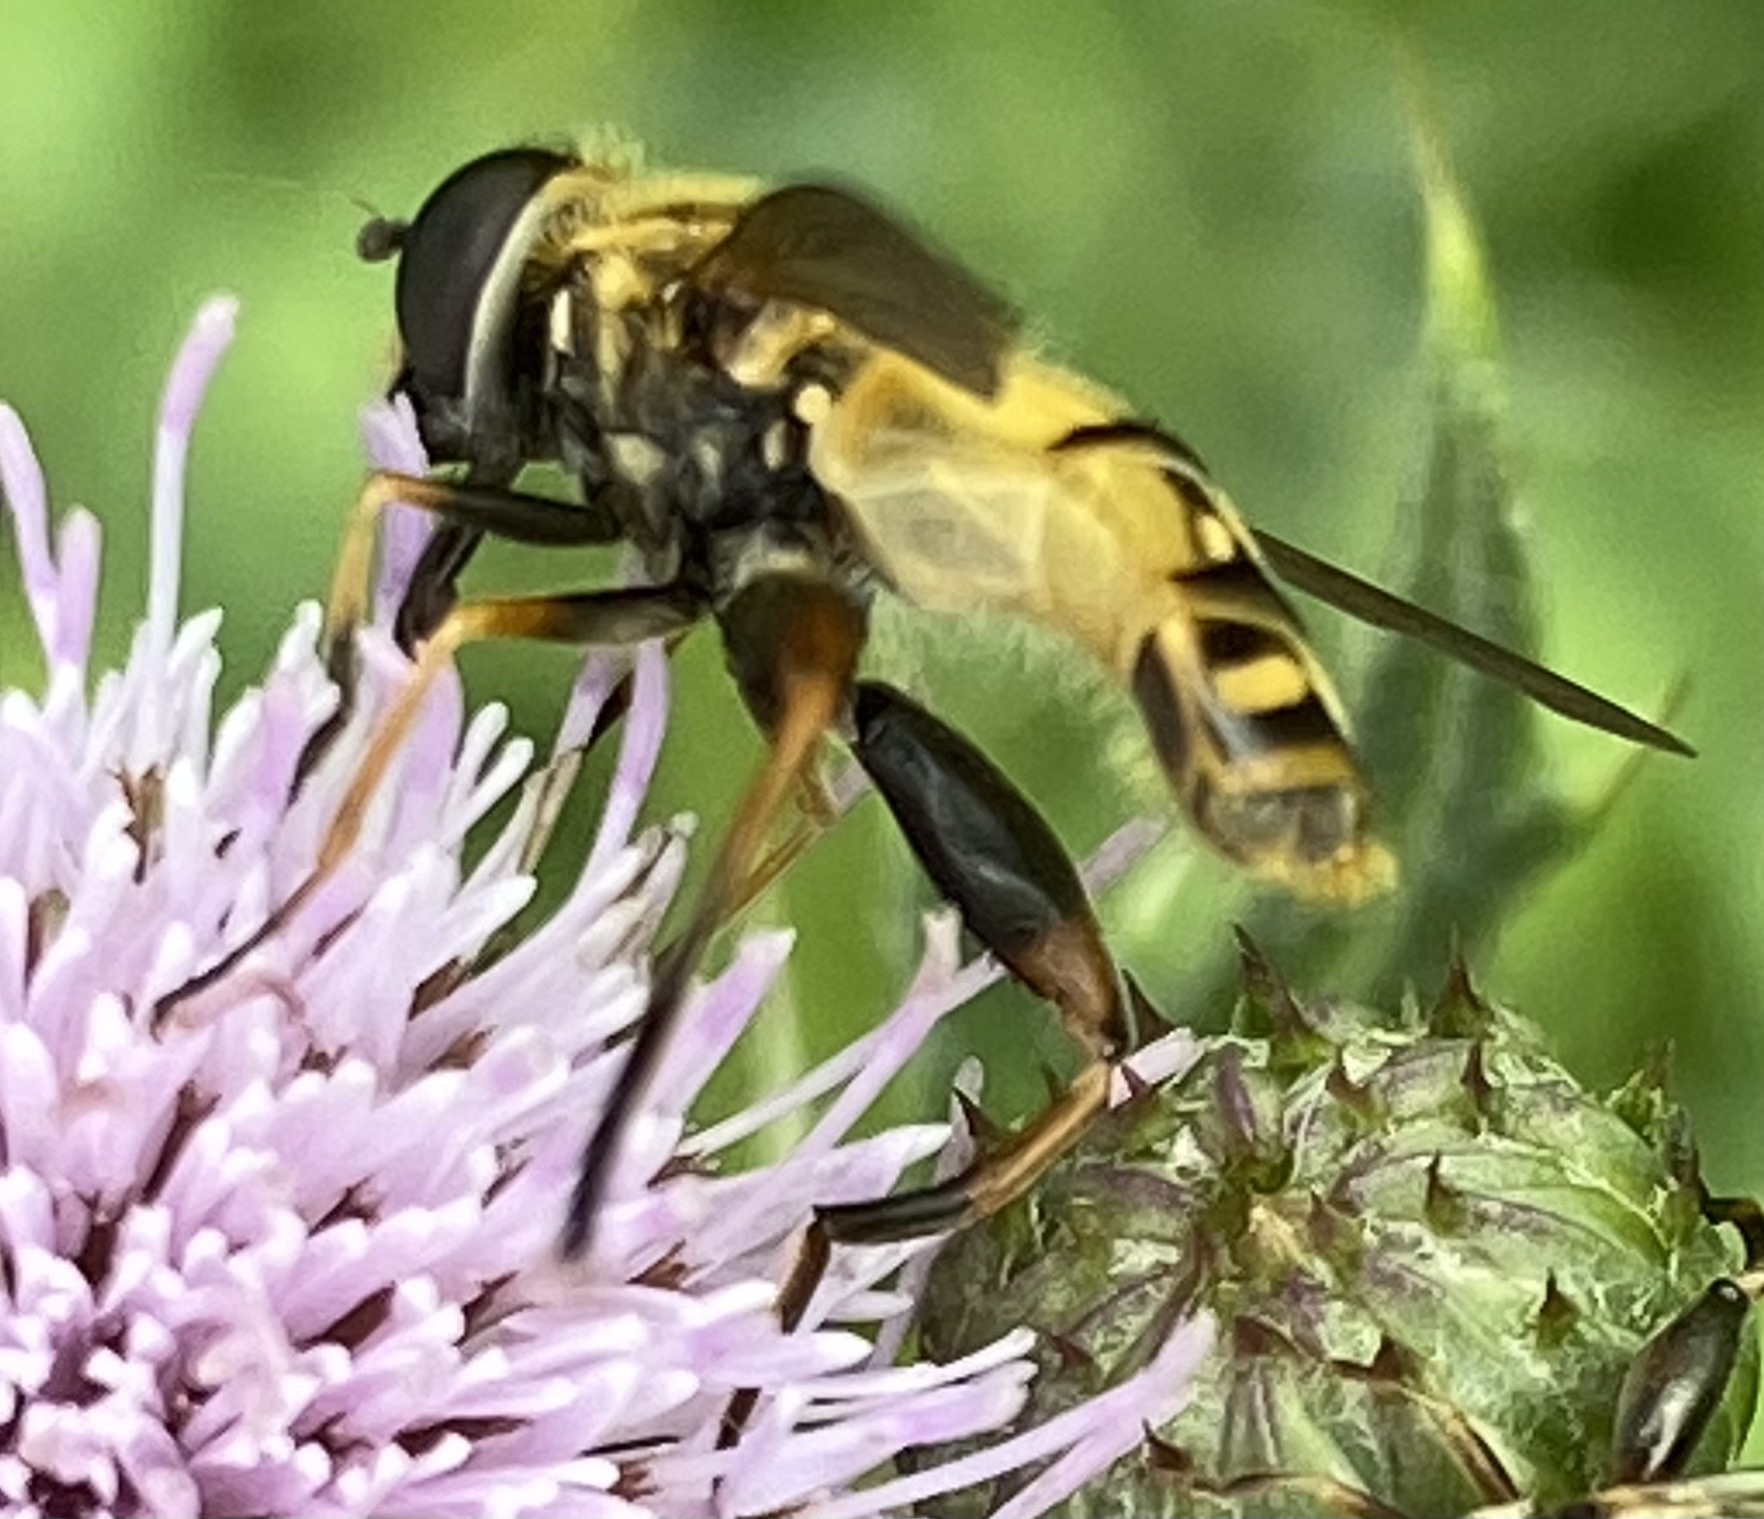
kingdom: Animalia
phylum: Arthropoda
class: Insecta
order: Diptera
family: Syrphidae
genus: Helophilus
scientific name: Helophilus pendulus
